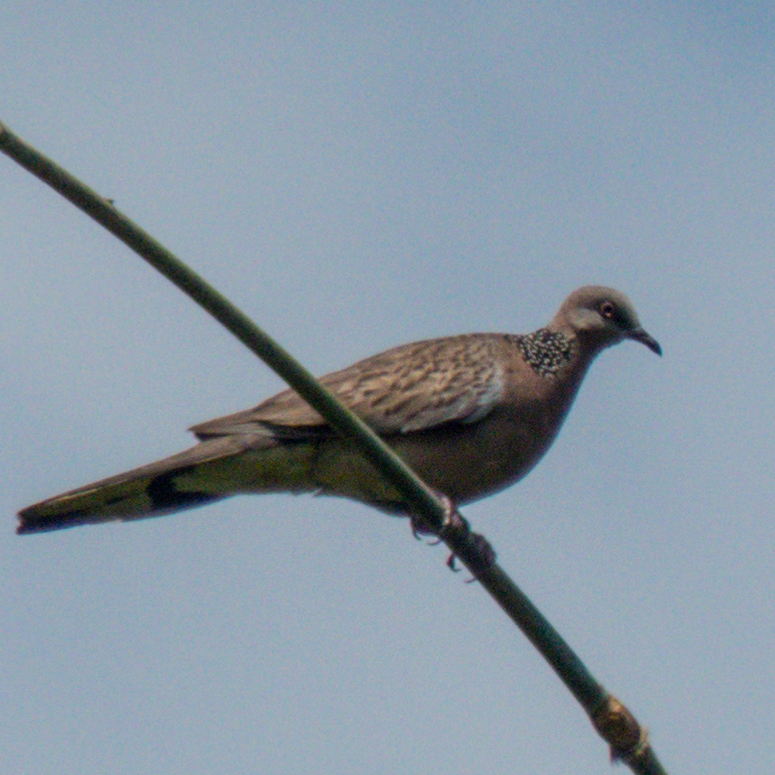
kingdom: Animalia
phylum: Chordata
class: Aves
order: Columbiformes
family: Columbidae
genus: Spilopelia
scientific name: Spilopelia chinensis
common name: Spotted dove
